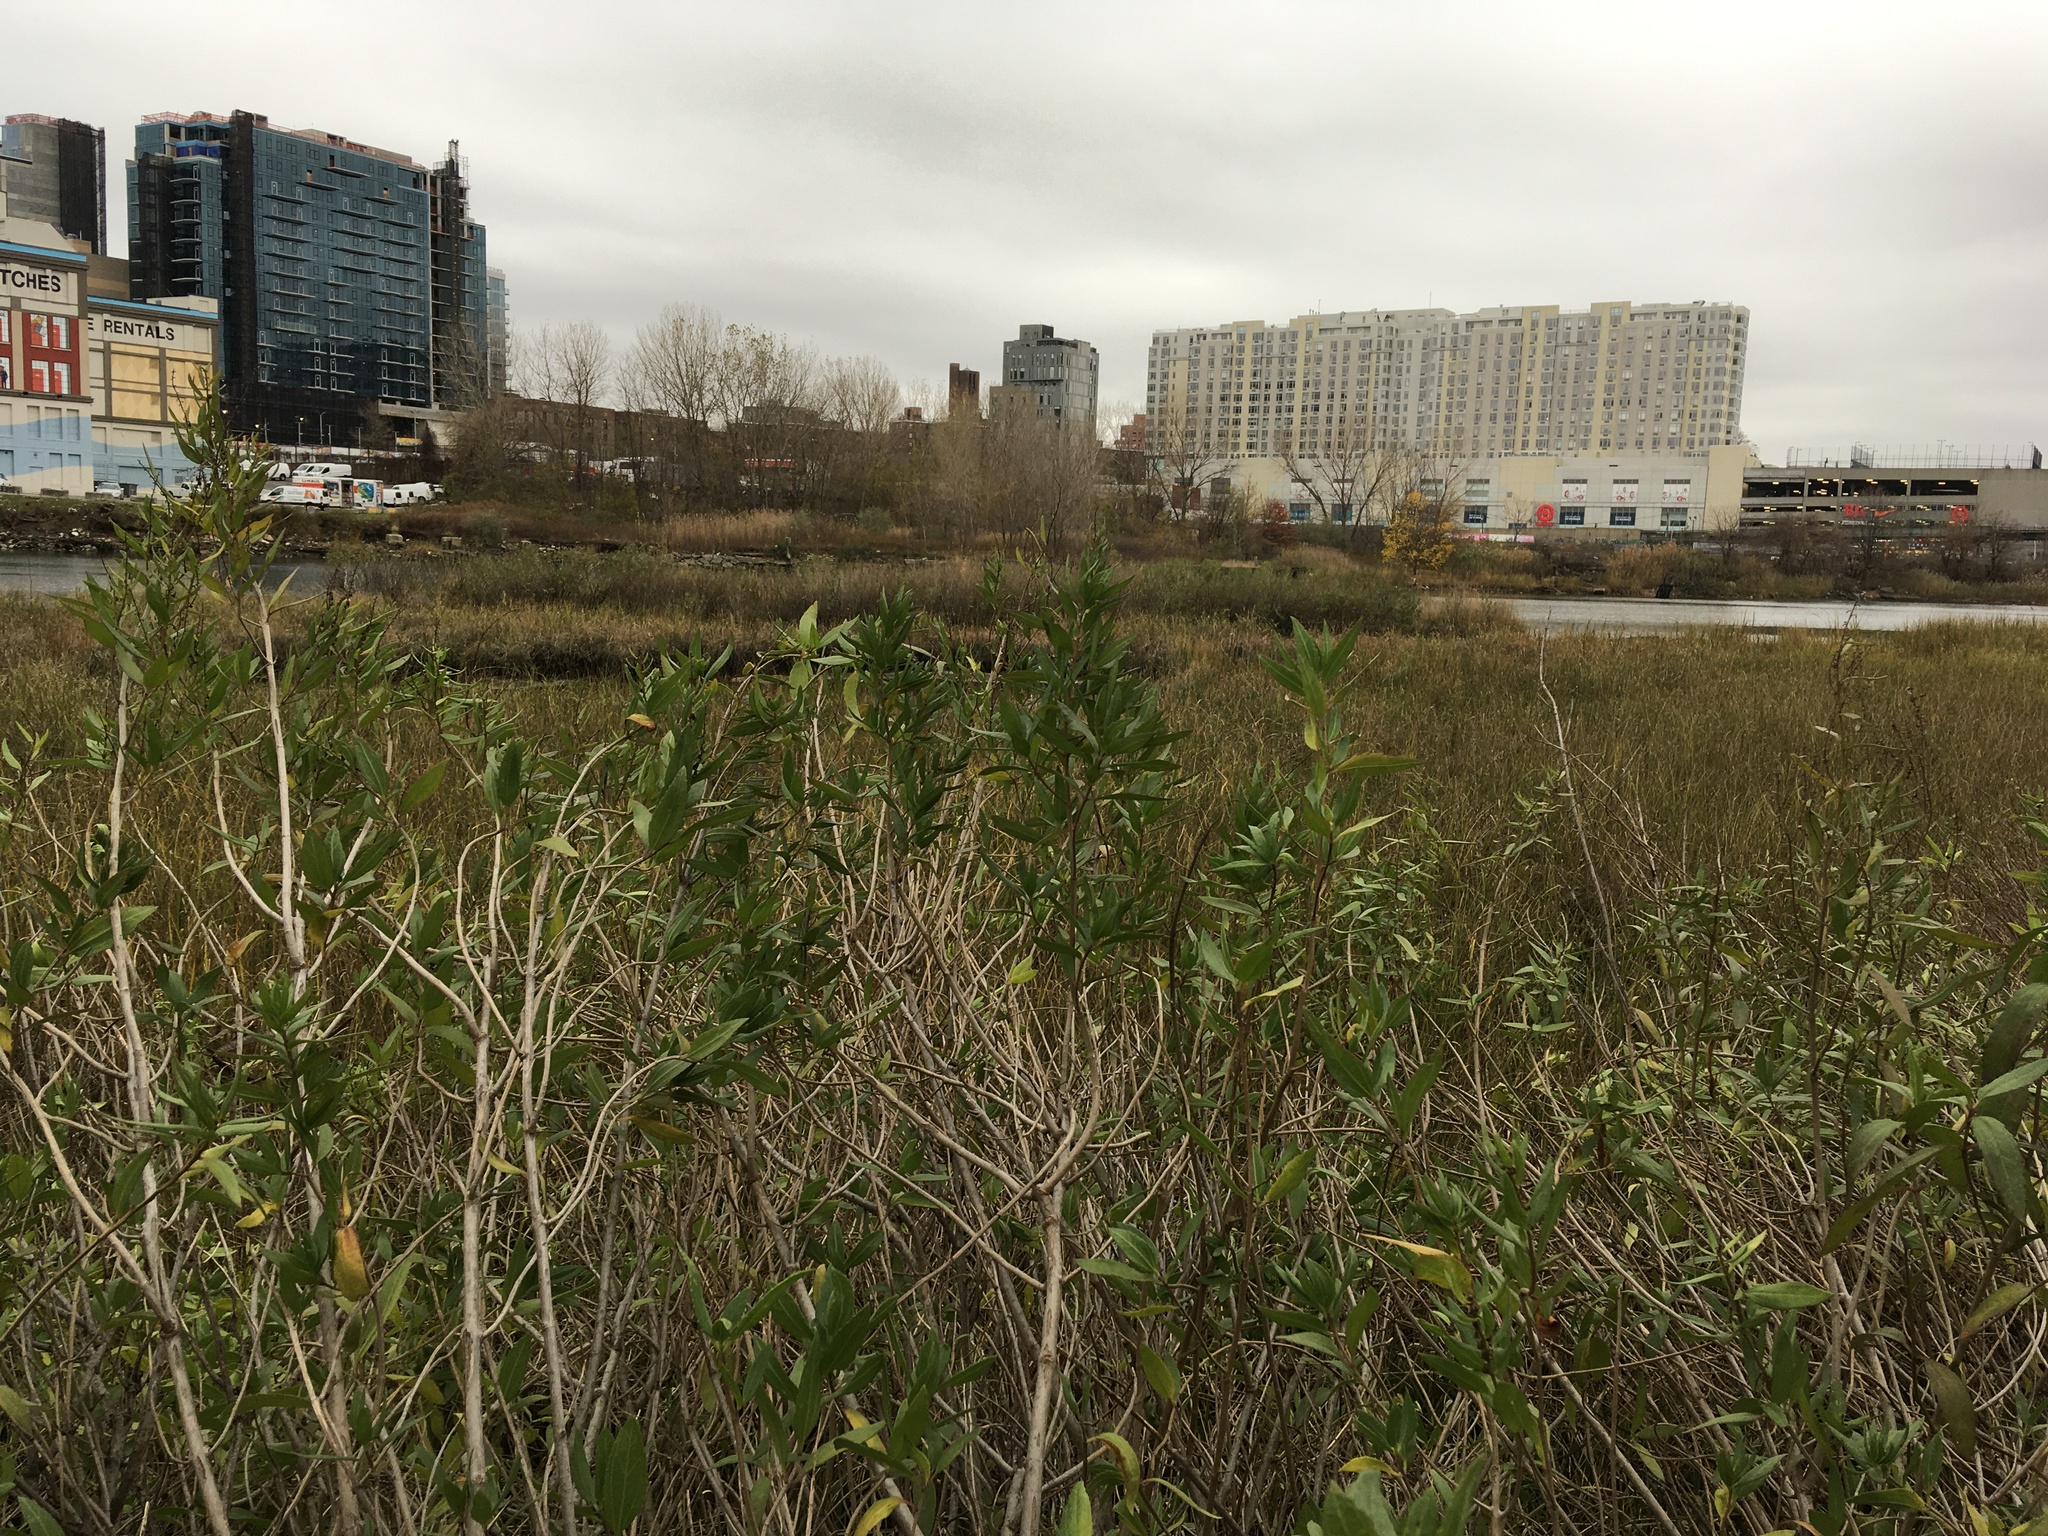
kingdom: Plantae
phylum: Tracheophyta
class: Magnoliopsida
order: Asterales
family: Asteraceae
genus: Iva
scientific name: Iva frutescens
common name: Big-leaved marsh-elder
